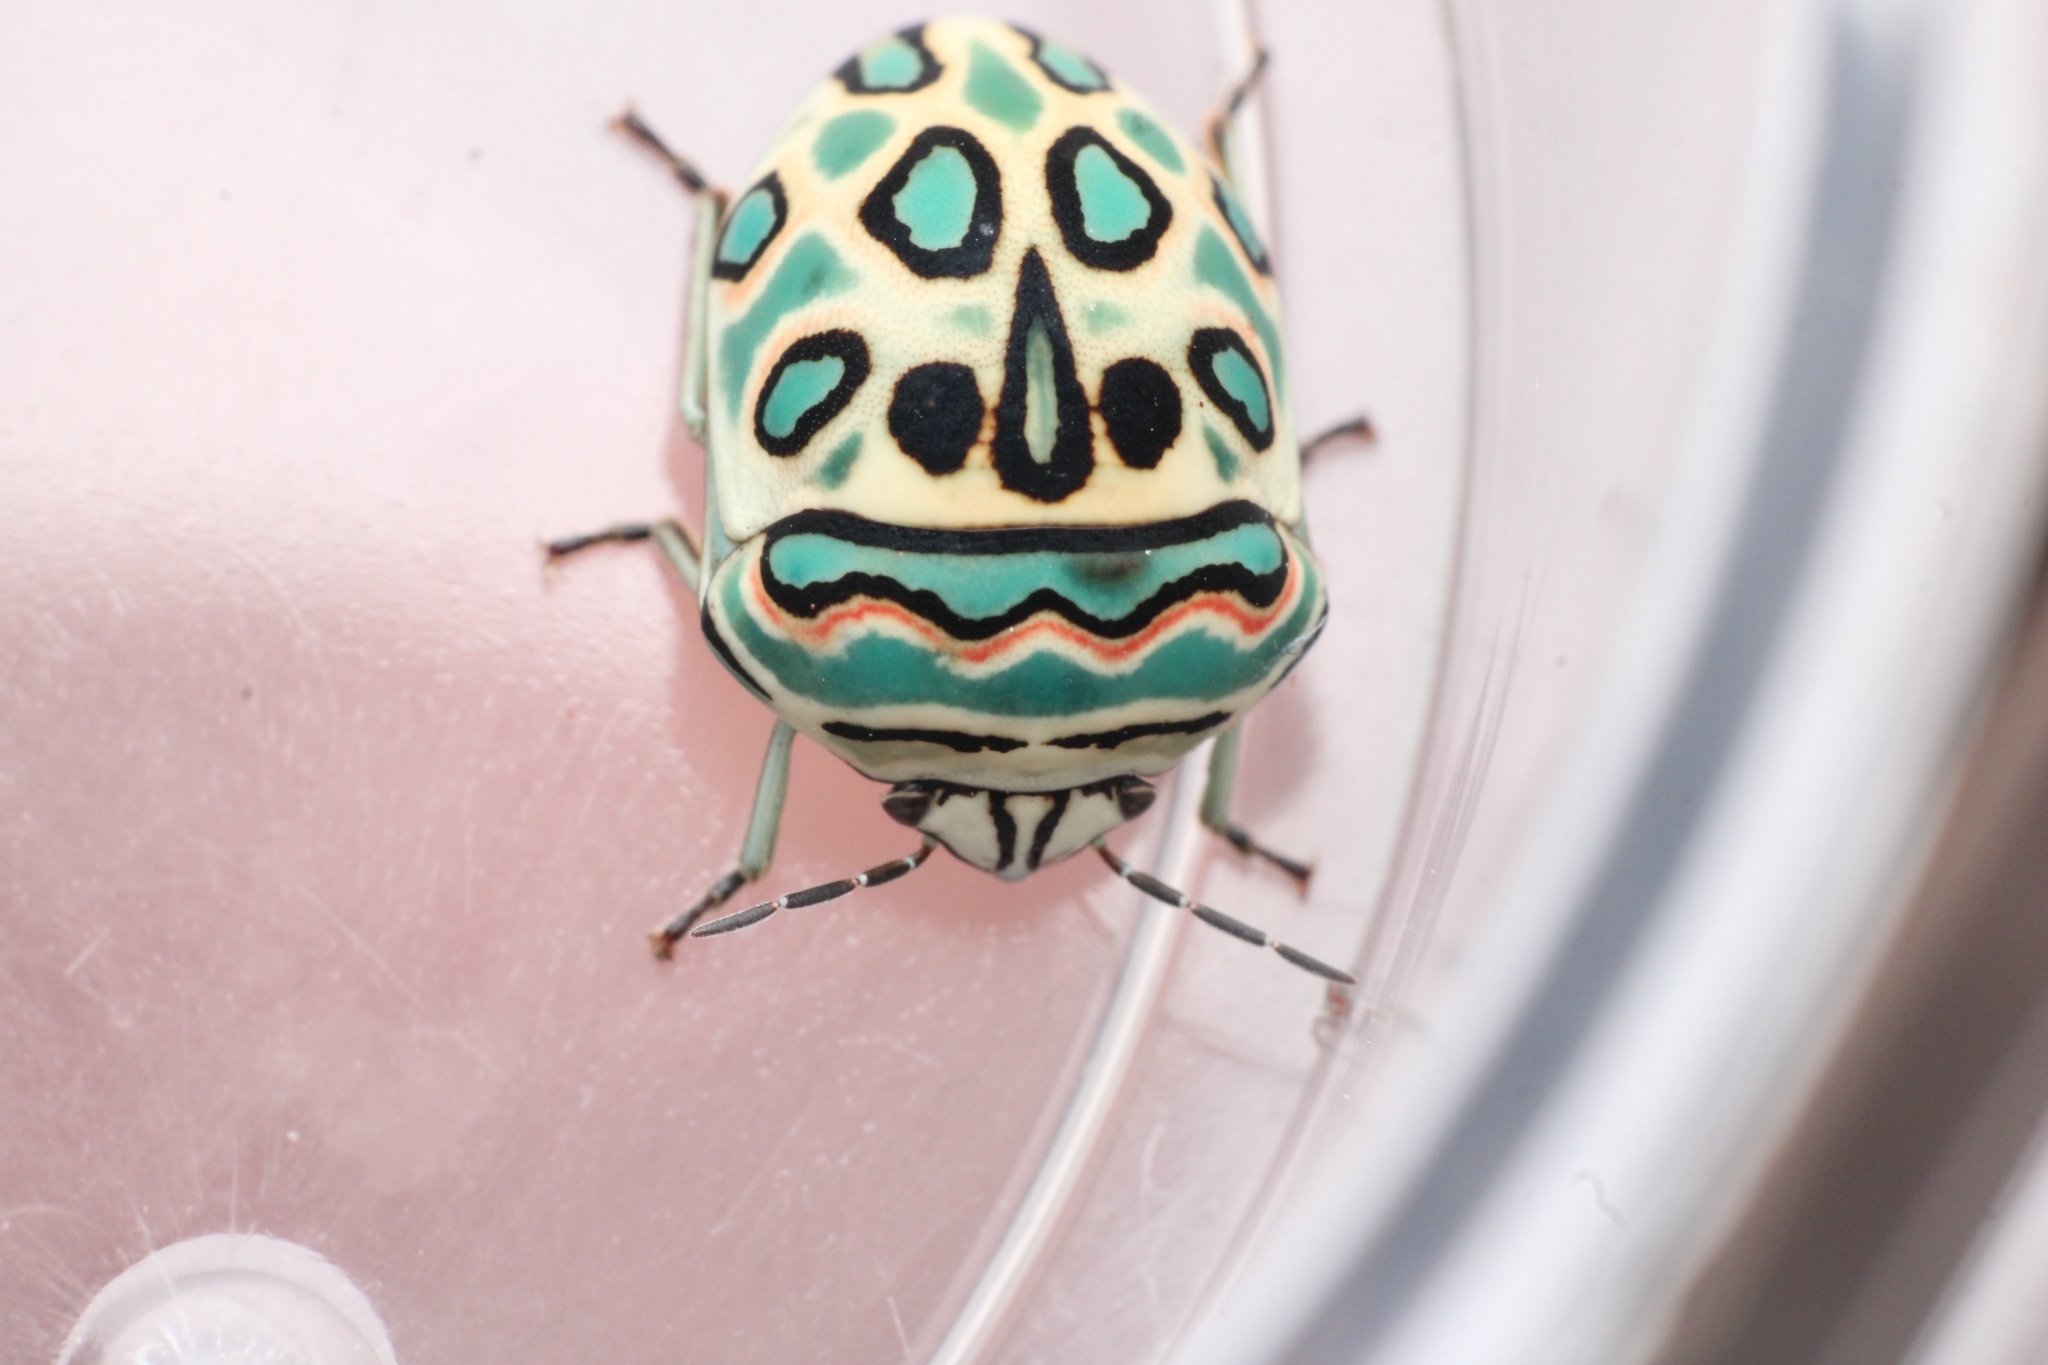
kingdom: Animalia
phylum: Arthropoda
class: Insecta
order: Hemiptera
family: Scutelleridae
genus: Sphaerocoris
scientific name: Sphaerocoris annulus
